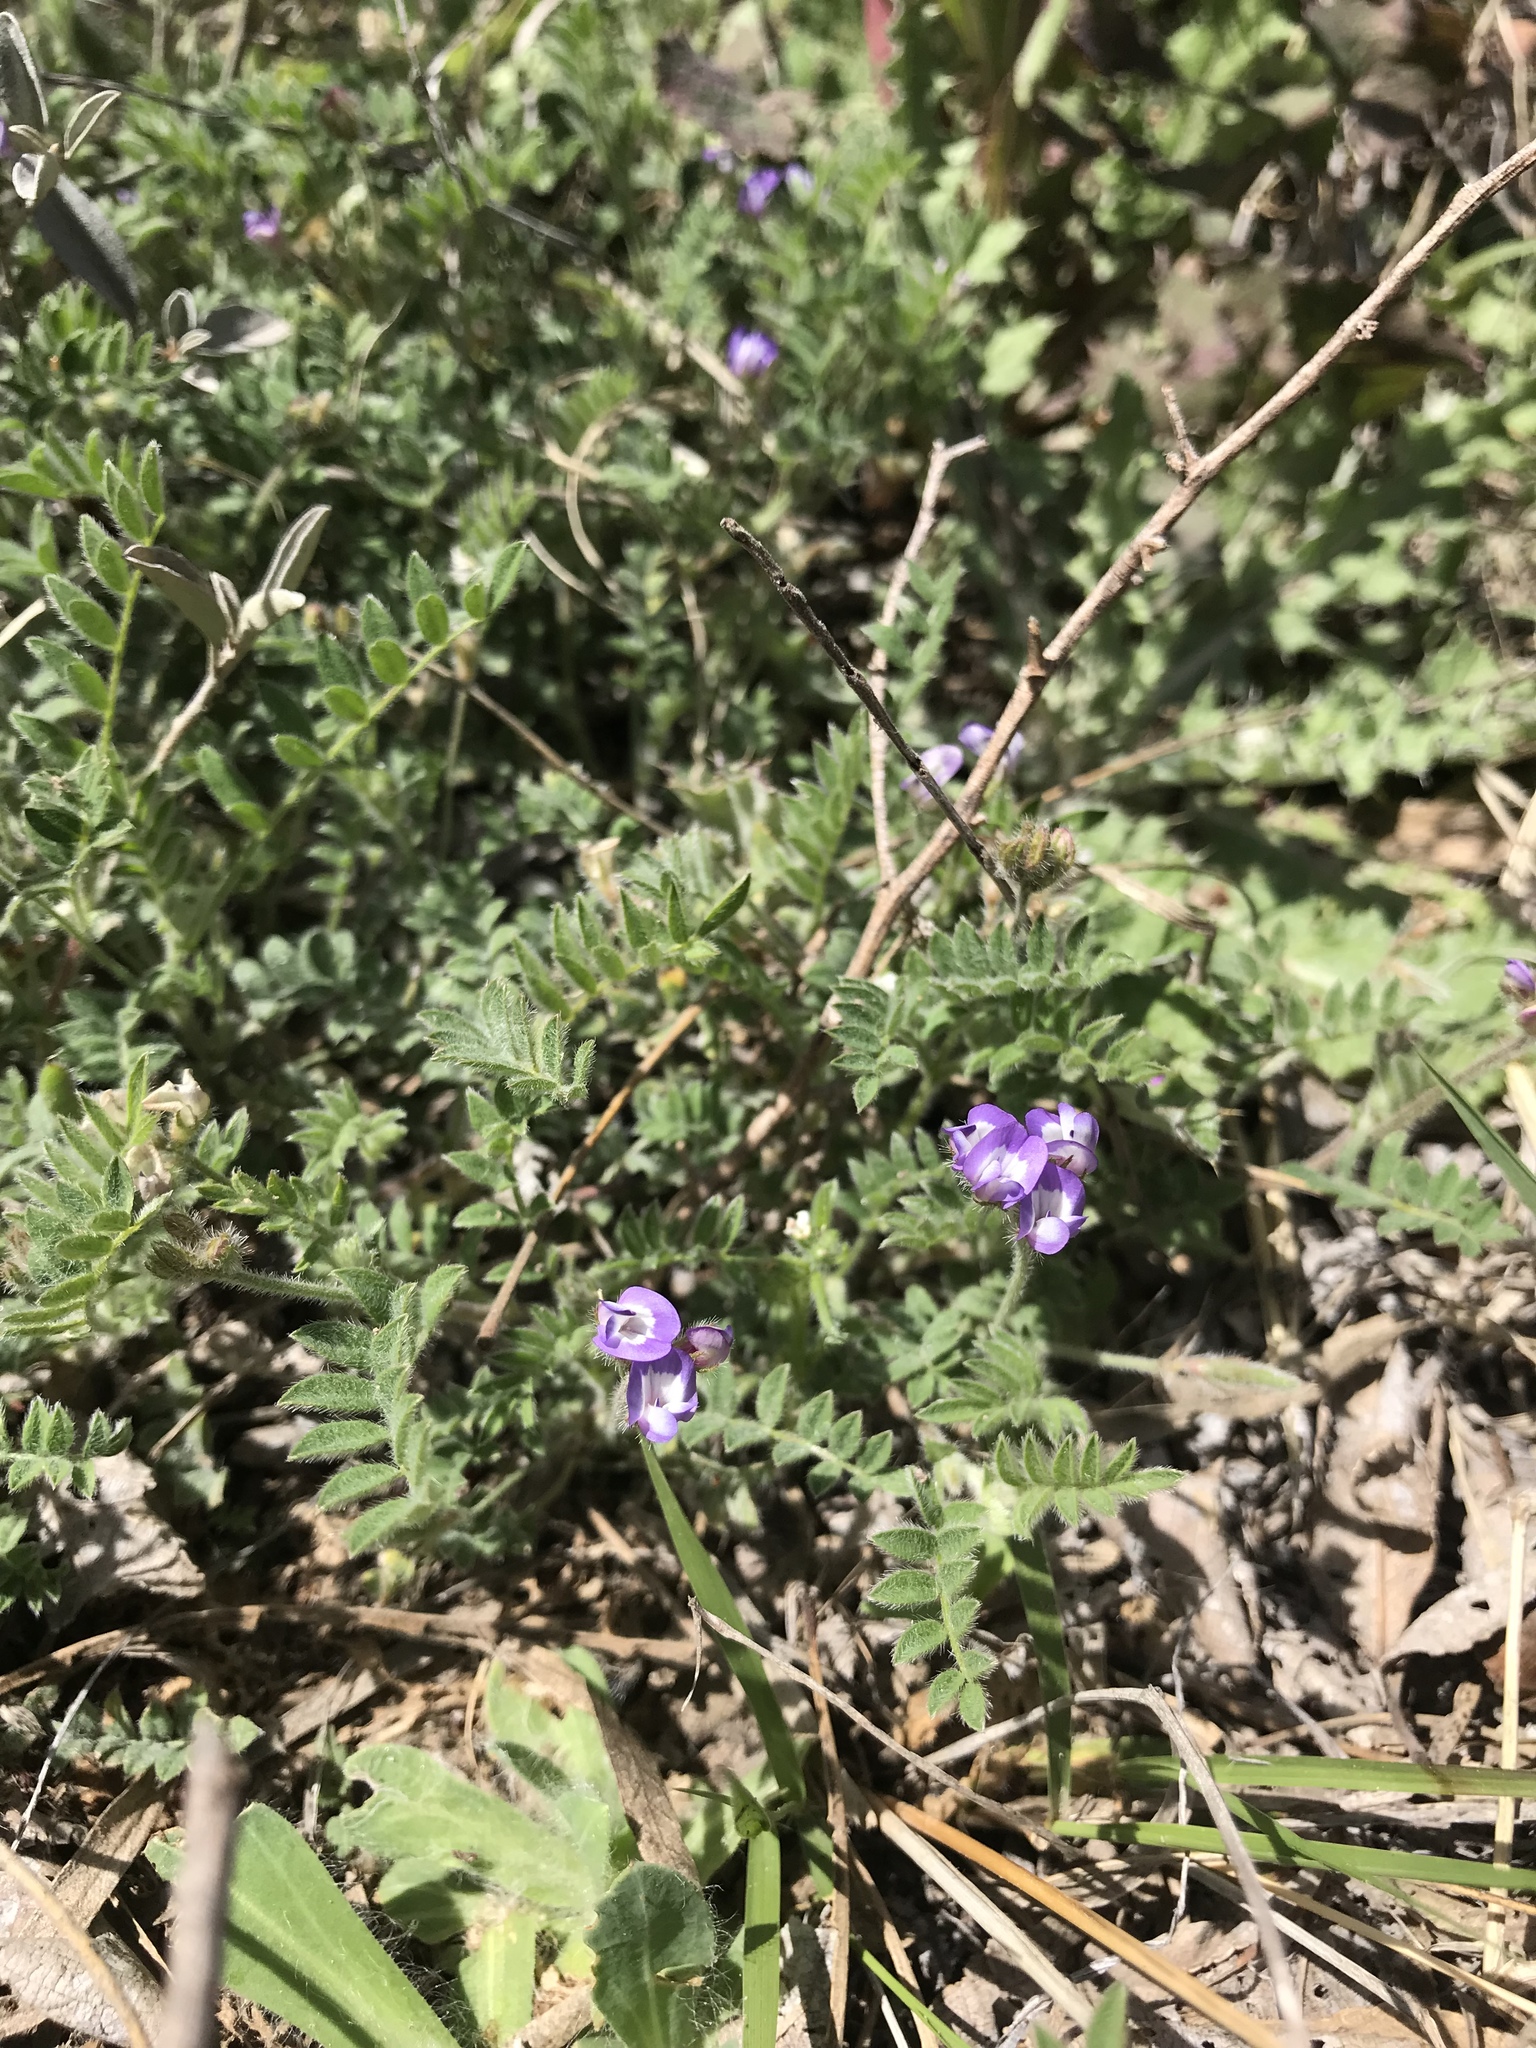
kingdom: Plantae
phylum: Tracheophyta
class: Magnoliopsida
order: Fabales
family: Fabaceae
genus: Astragalus
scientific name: Astragalus nuttallianus
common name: Smallflowered milkvetch
